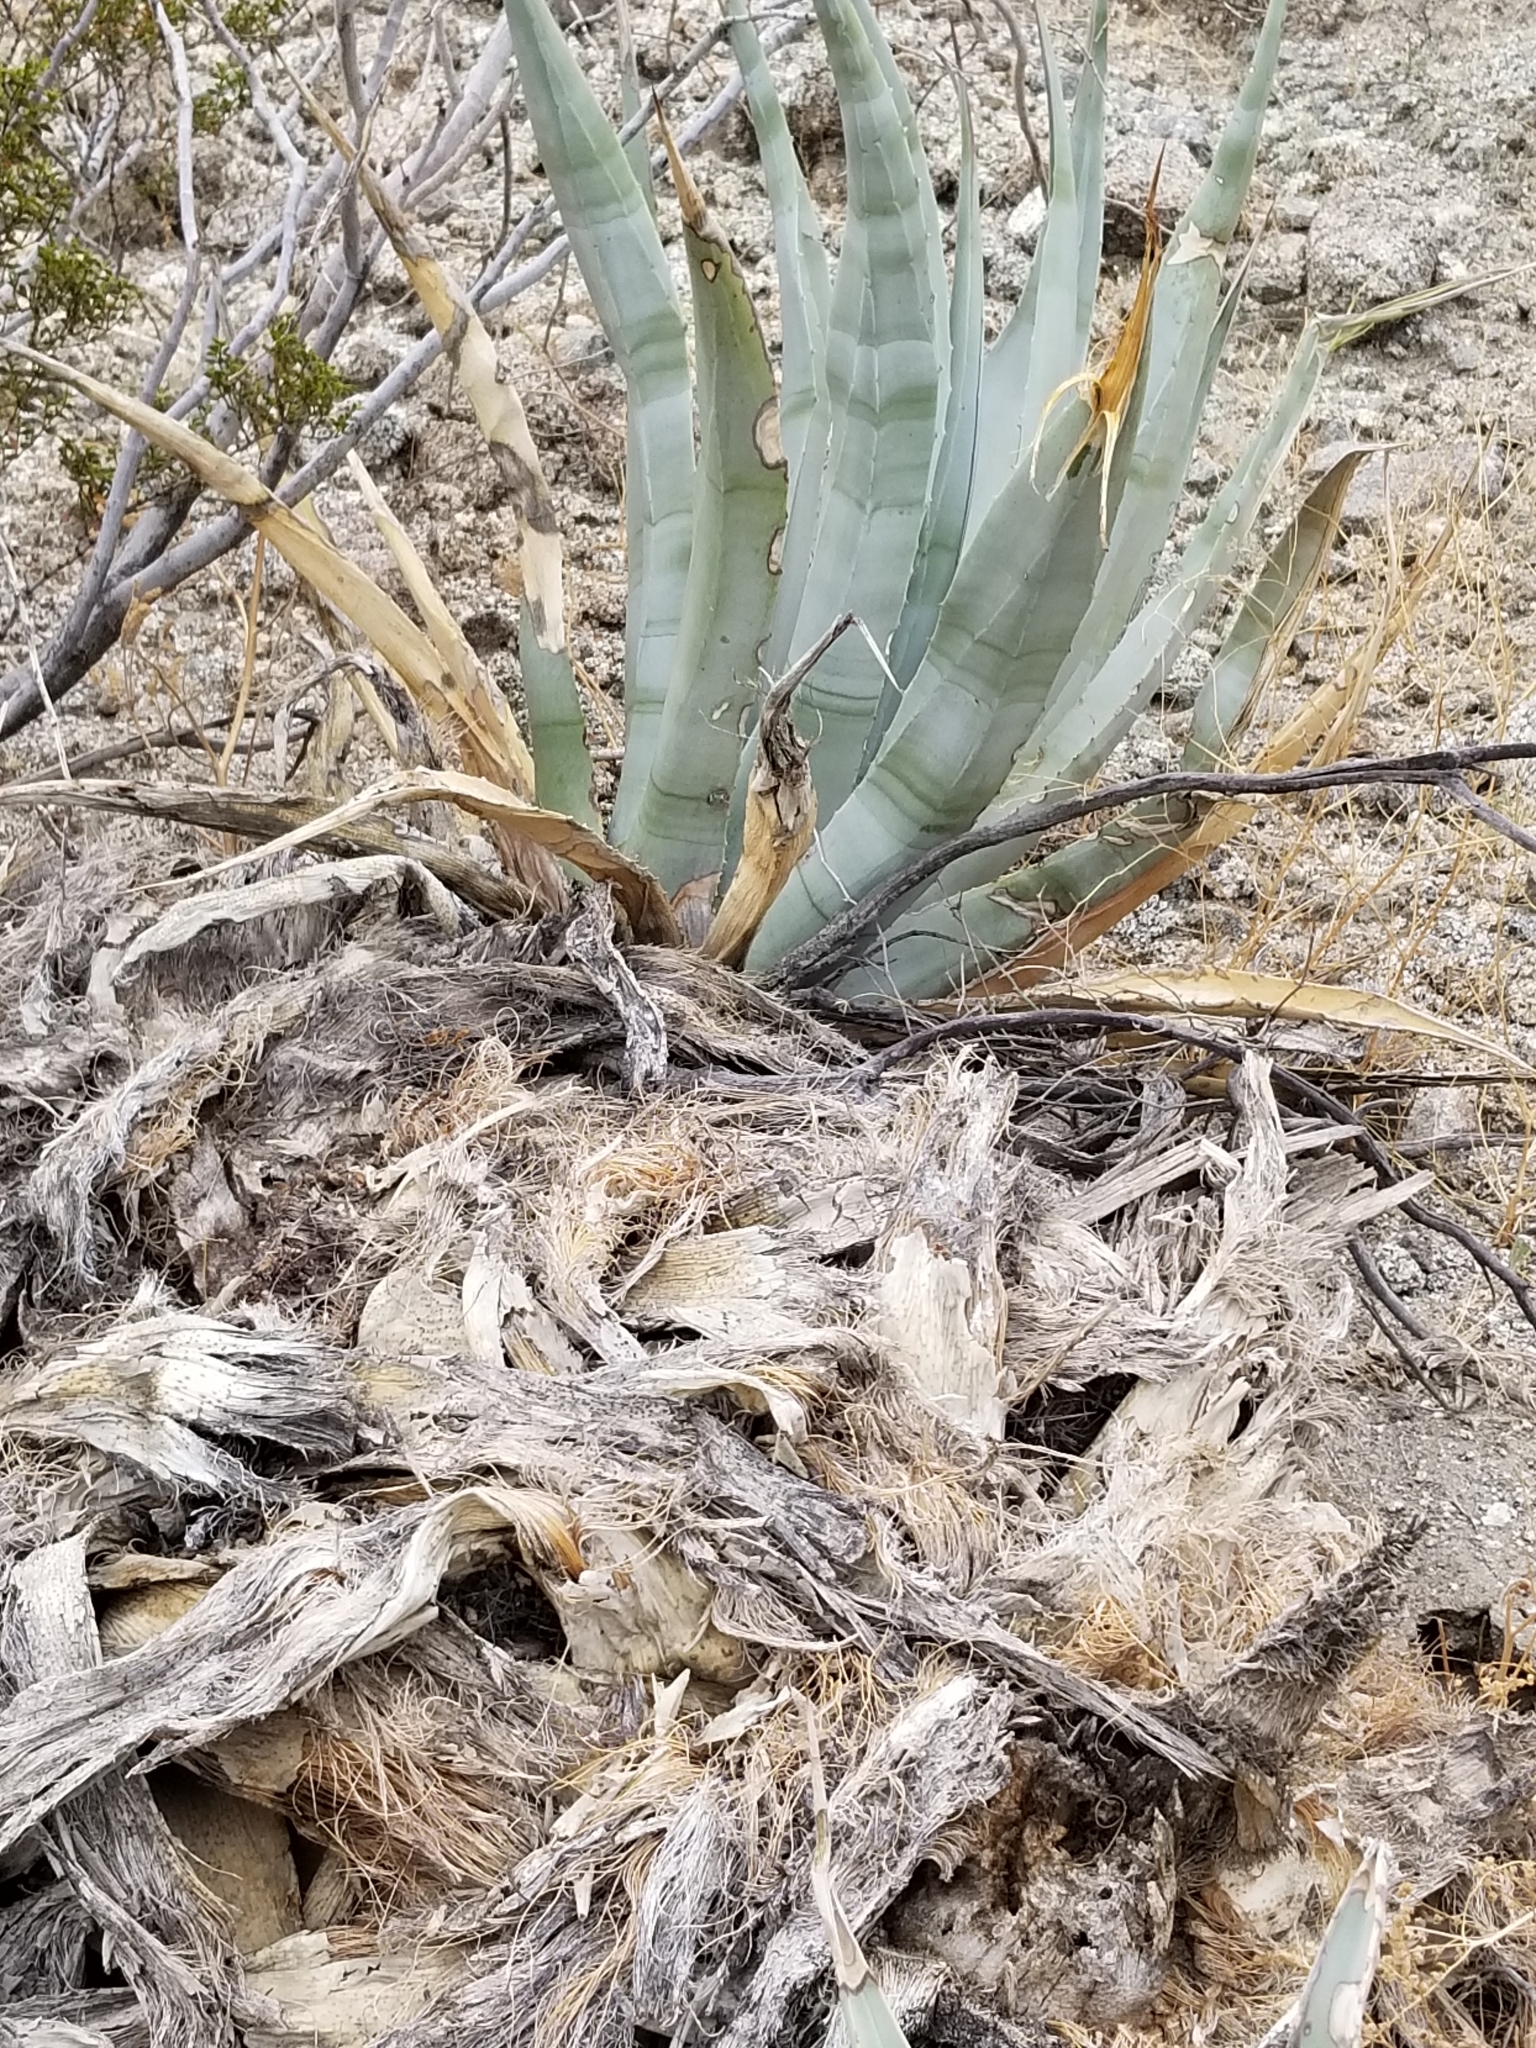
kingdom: Plantae
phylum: Tracheophyta
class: Liliopsida
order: Asparagales
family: Asparagaceae
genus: Agave
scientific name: Agave deserti
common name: Desert agave
